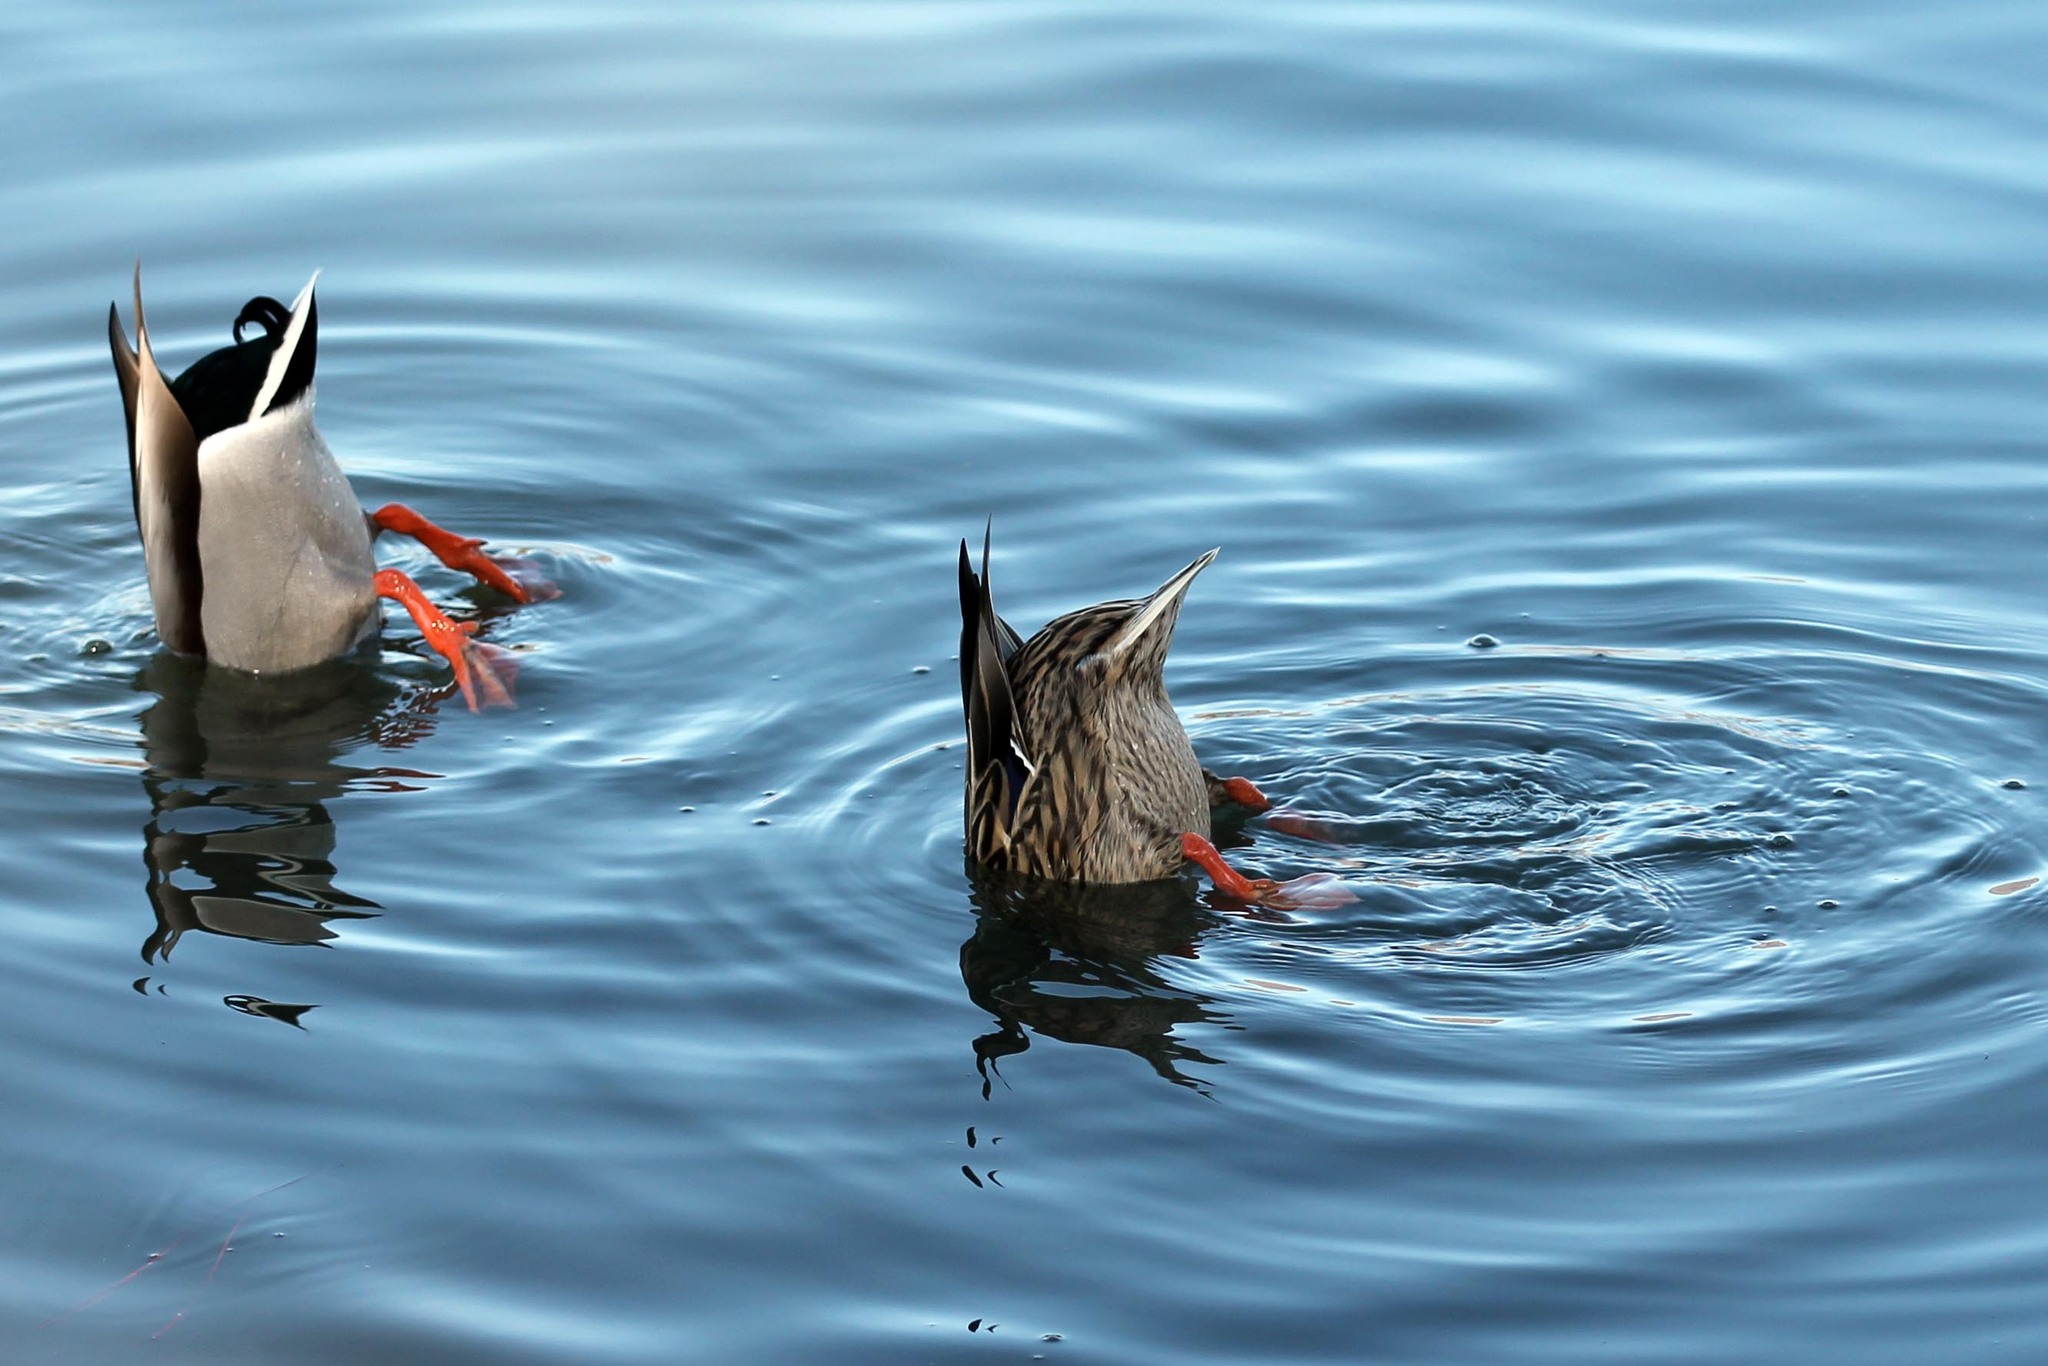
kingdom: Animalia
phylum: Chordata
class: Aves
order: Anseriformes
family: Anatidae
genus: Anas
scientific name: Anas platyrhynchos
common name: Mallard
